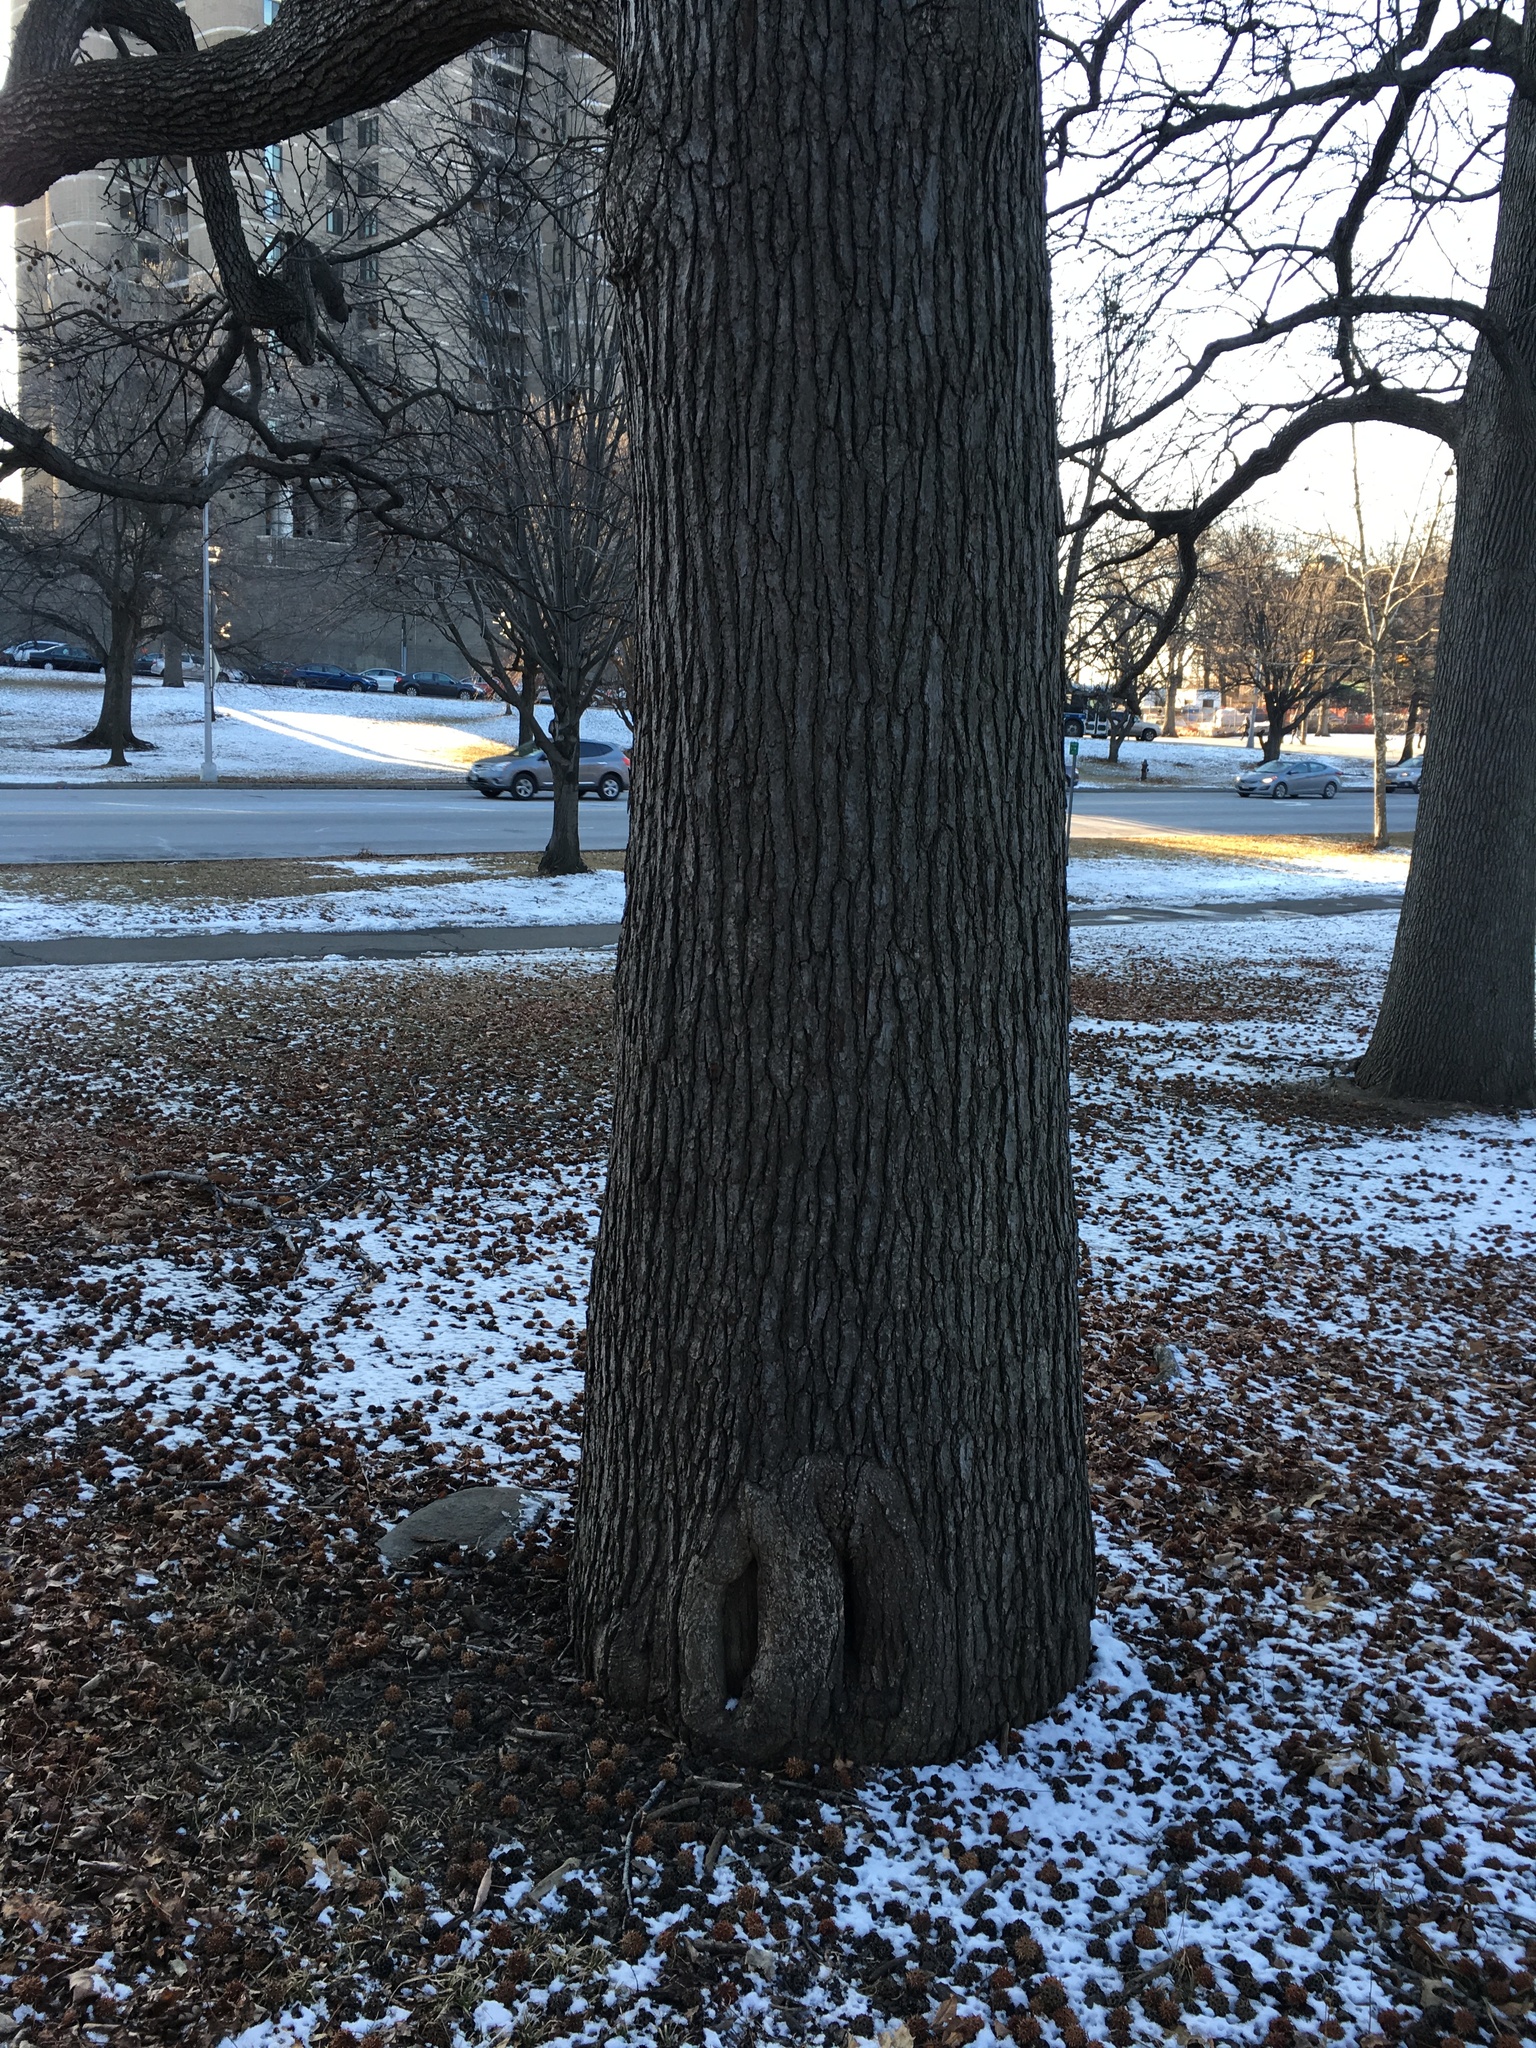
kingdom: Plantae
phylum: Tracheophyta
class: Magnoliopsida
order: Saxifragales
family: Altingiaceae
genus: Liquidambar
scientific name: Liquidambar styraciflua
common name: Sweet gum
